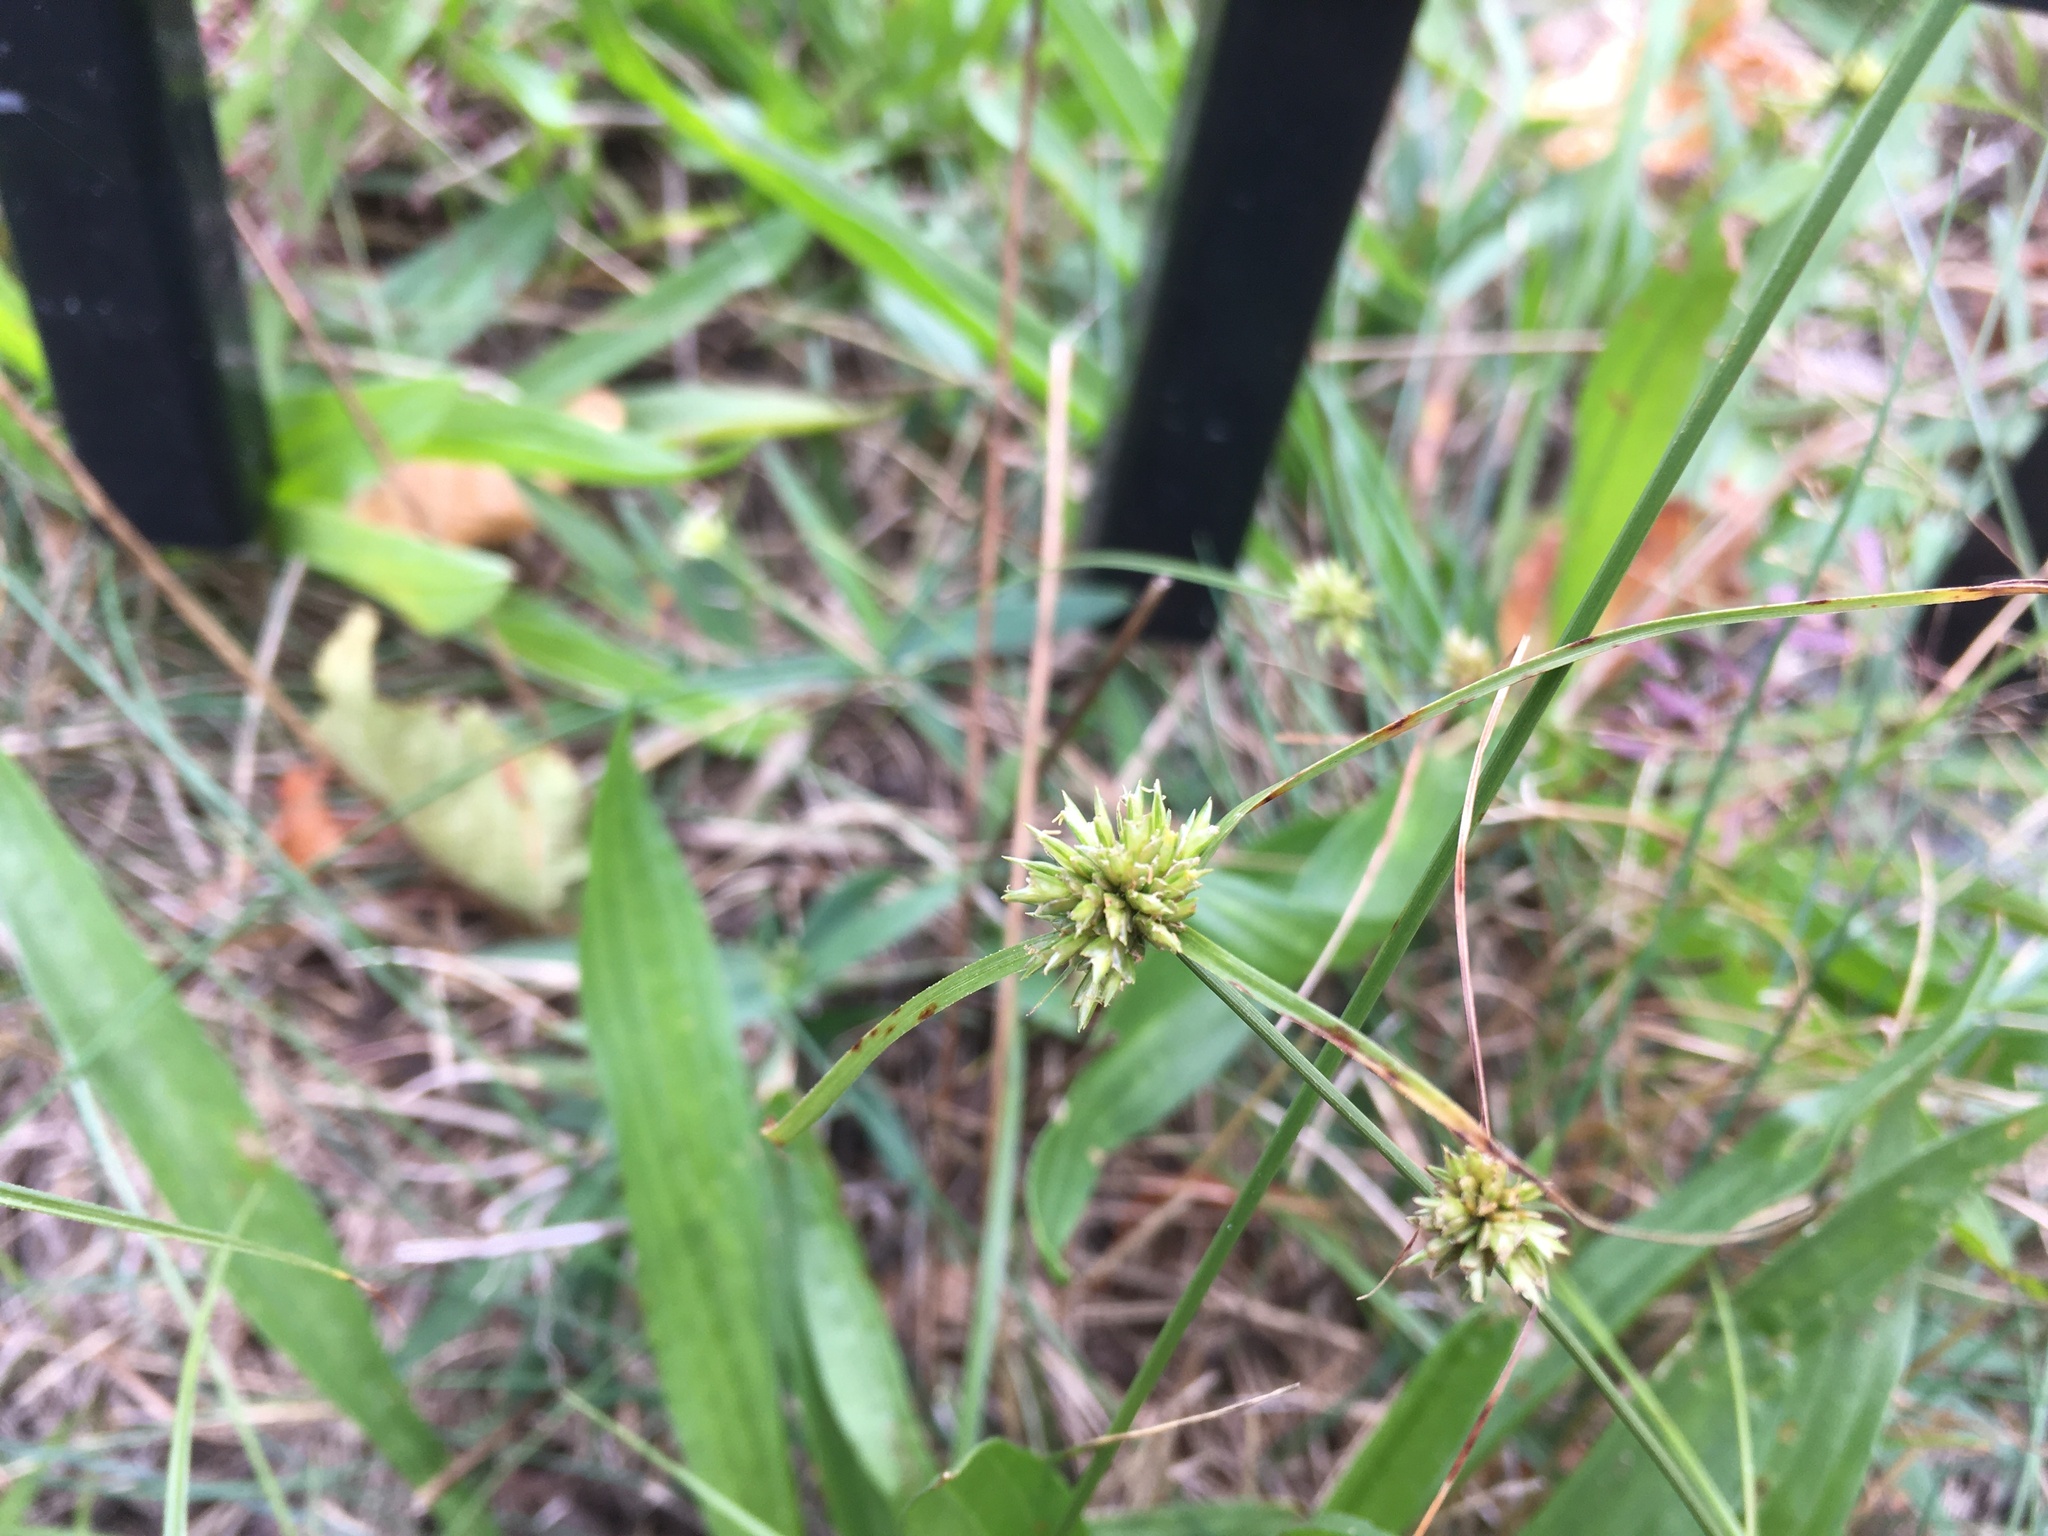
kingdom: Plantae
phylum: Tracheophyta
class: Liliopsida
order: Poales
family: Cyperaceae
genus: Cyperus
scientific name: Cyperus lupulinus
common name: Great plains flatsedge
